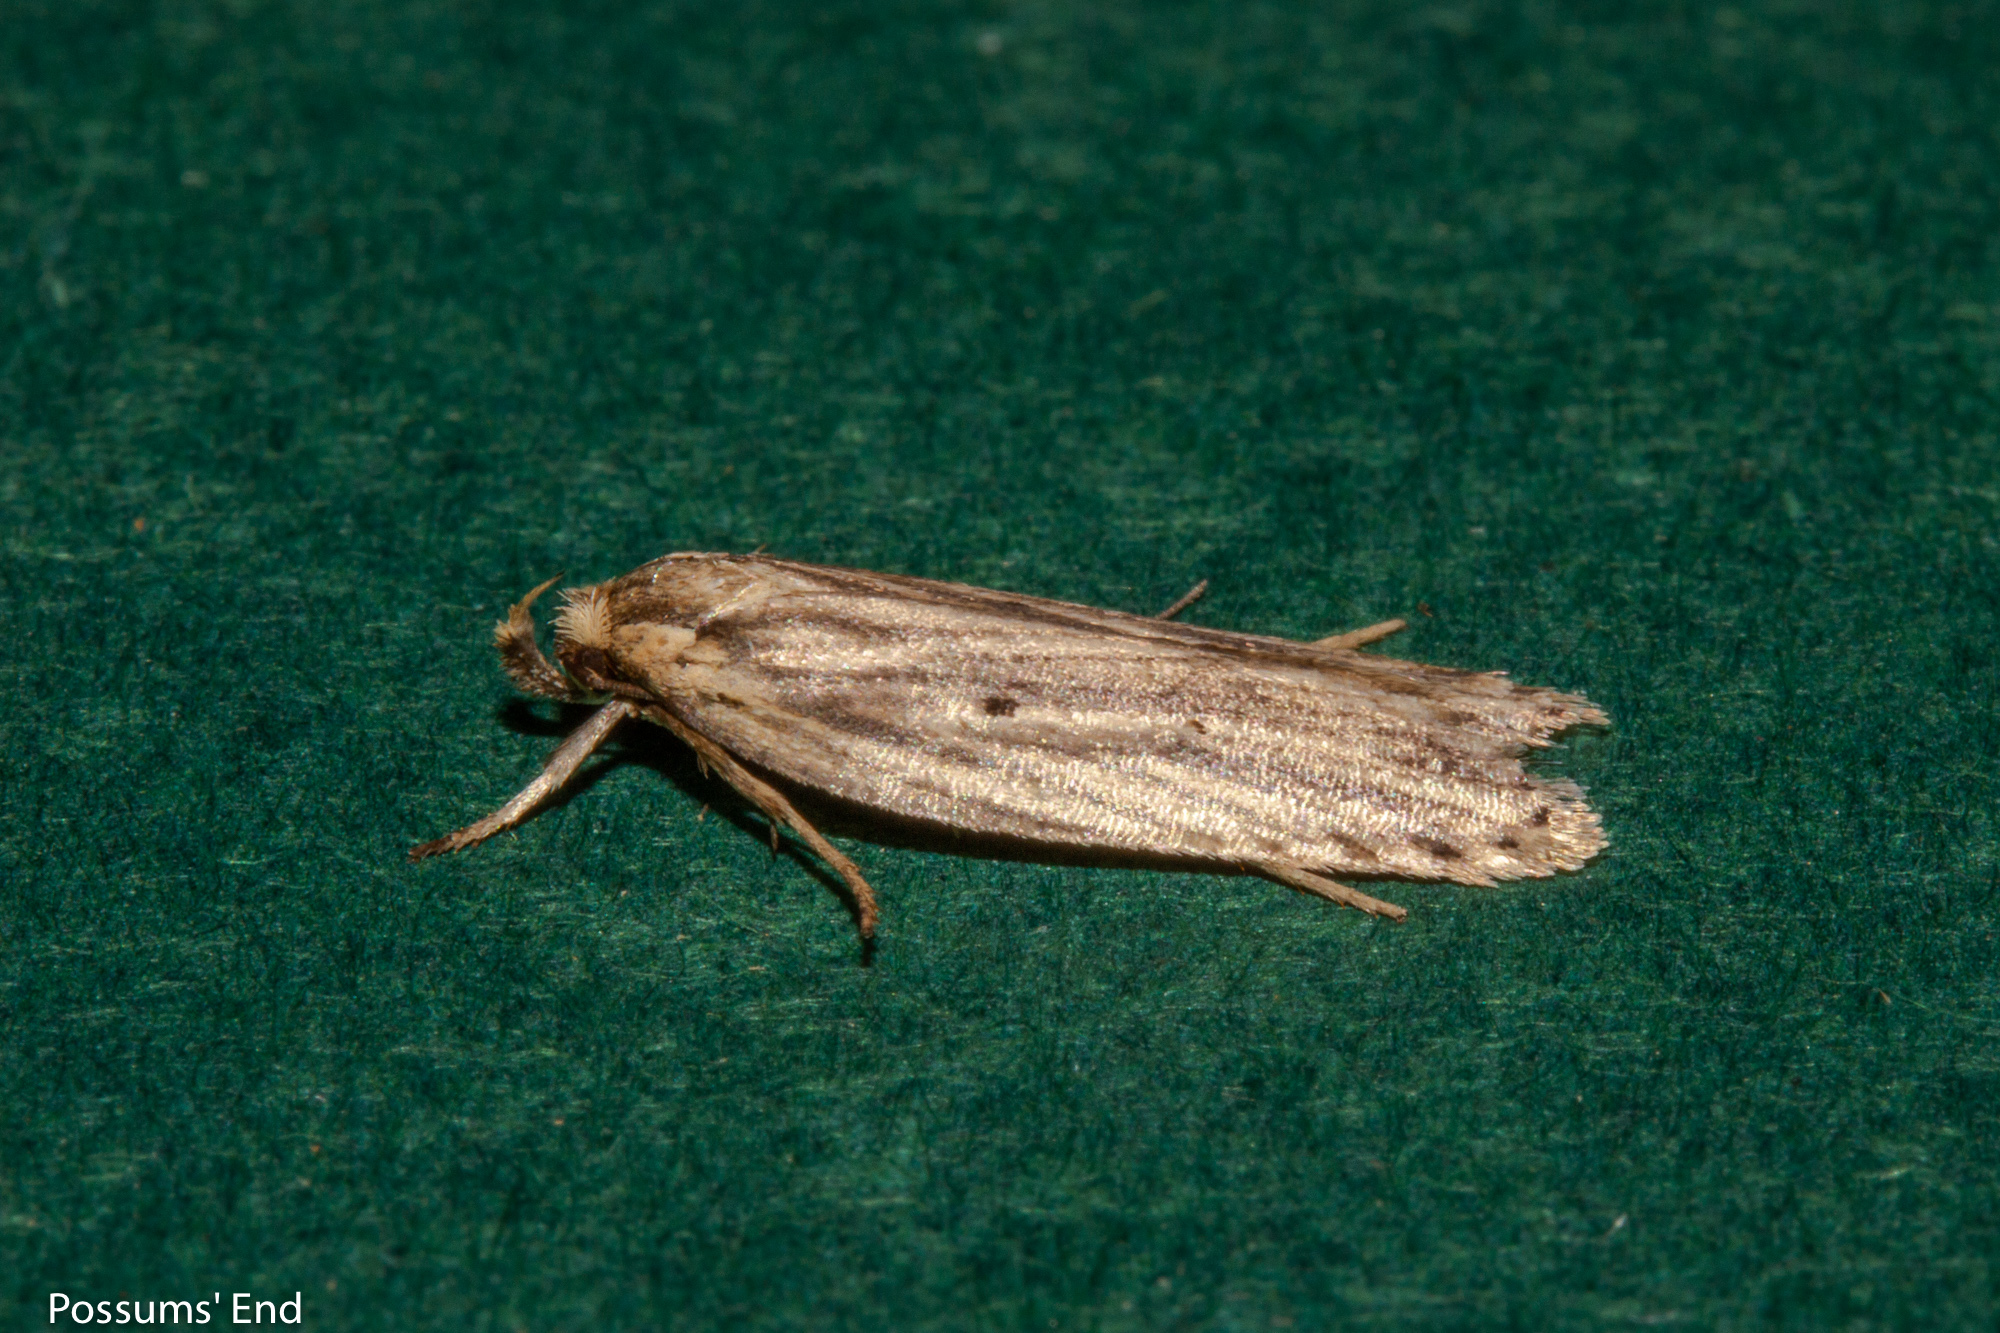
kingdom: Animalia
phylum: Arthropoda
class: Insecta
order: Lepidoptera
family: Depressariidae
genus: Agonopterix
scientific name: Agonopterix
